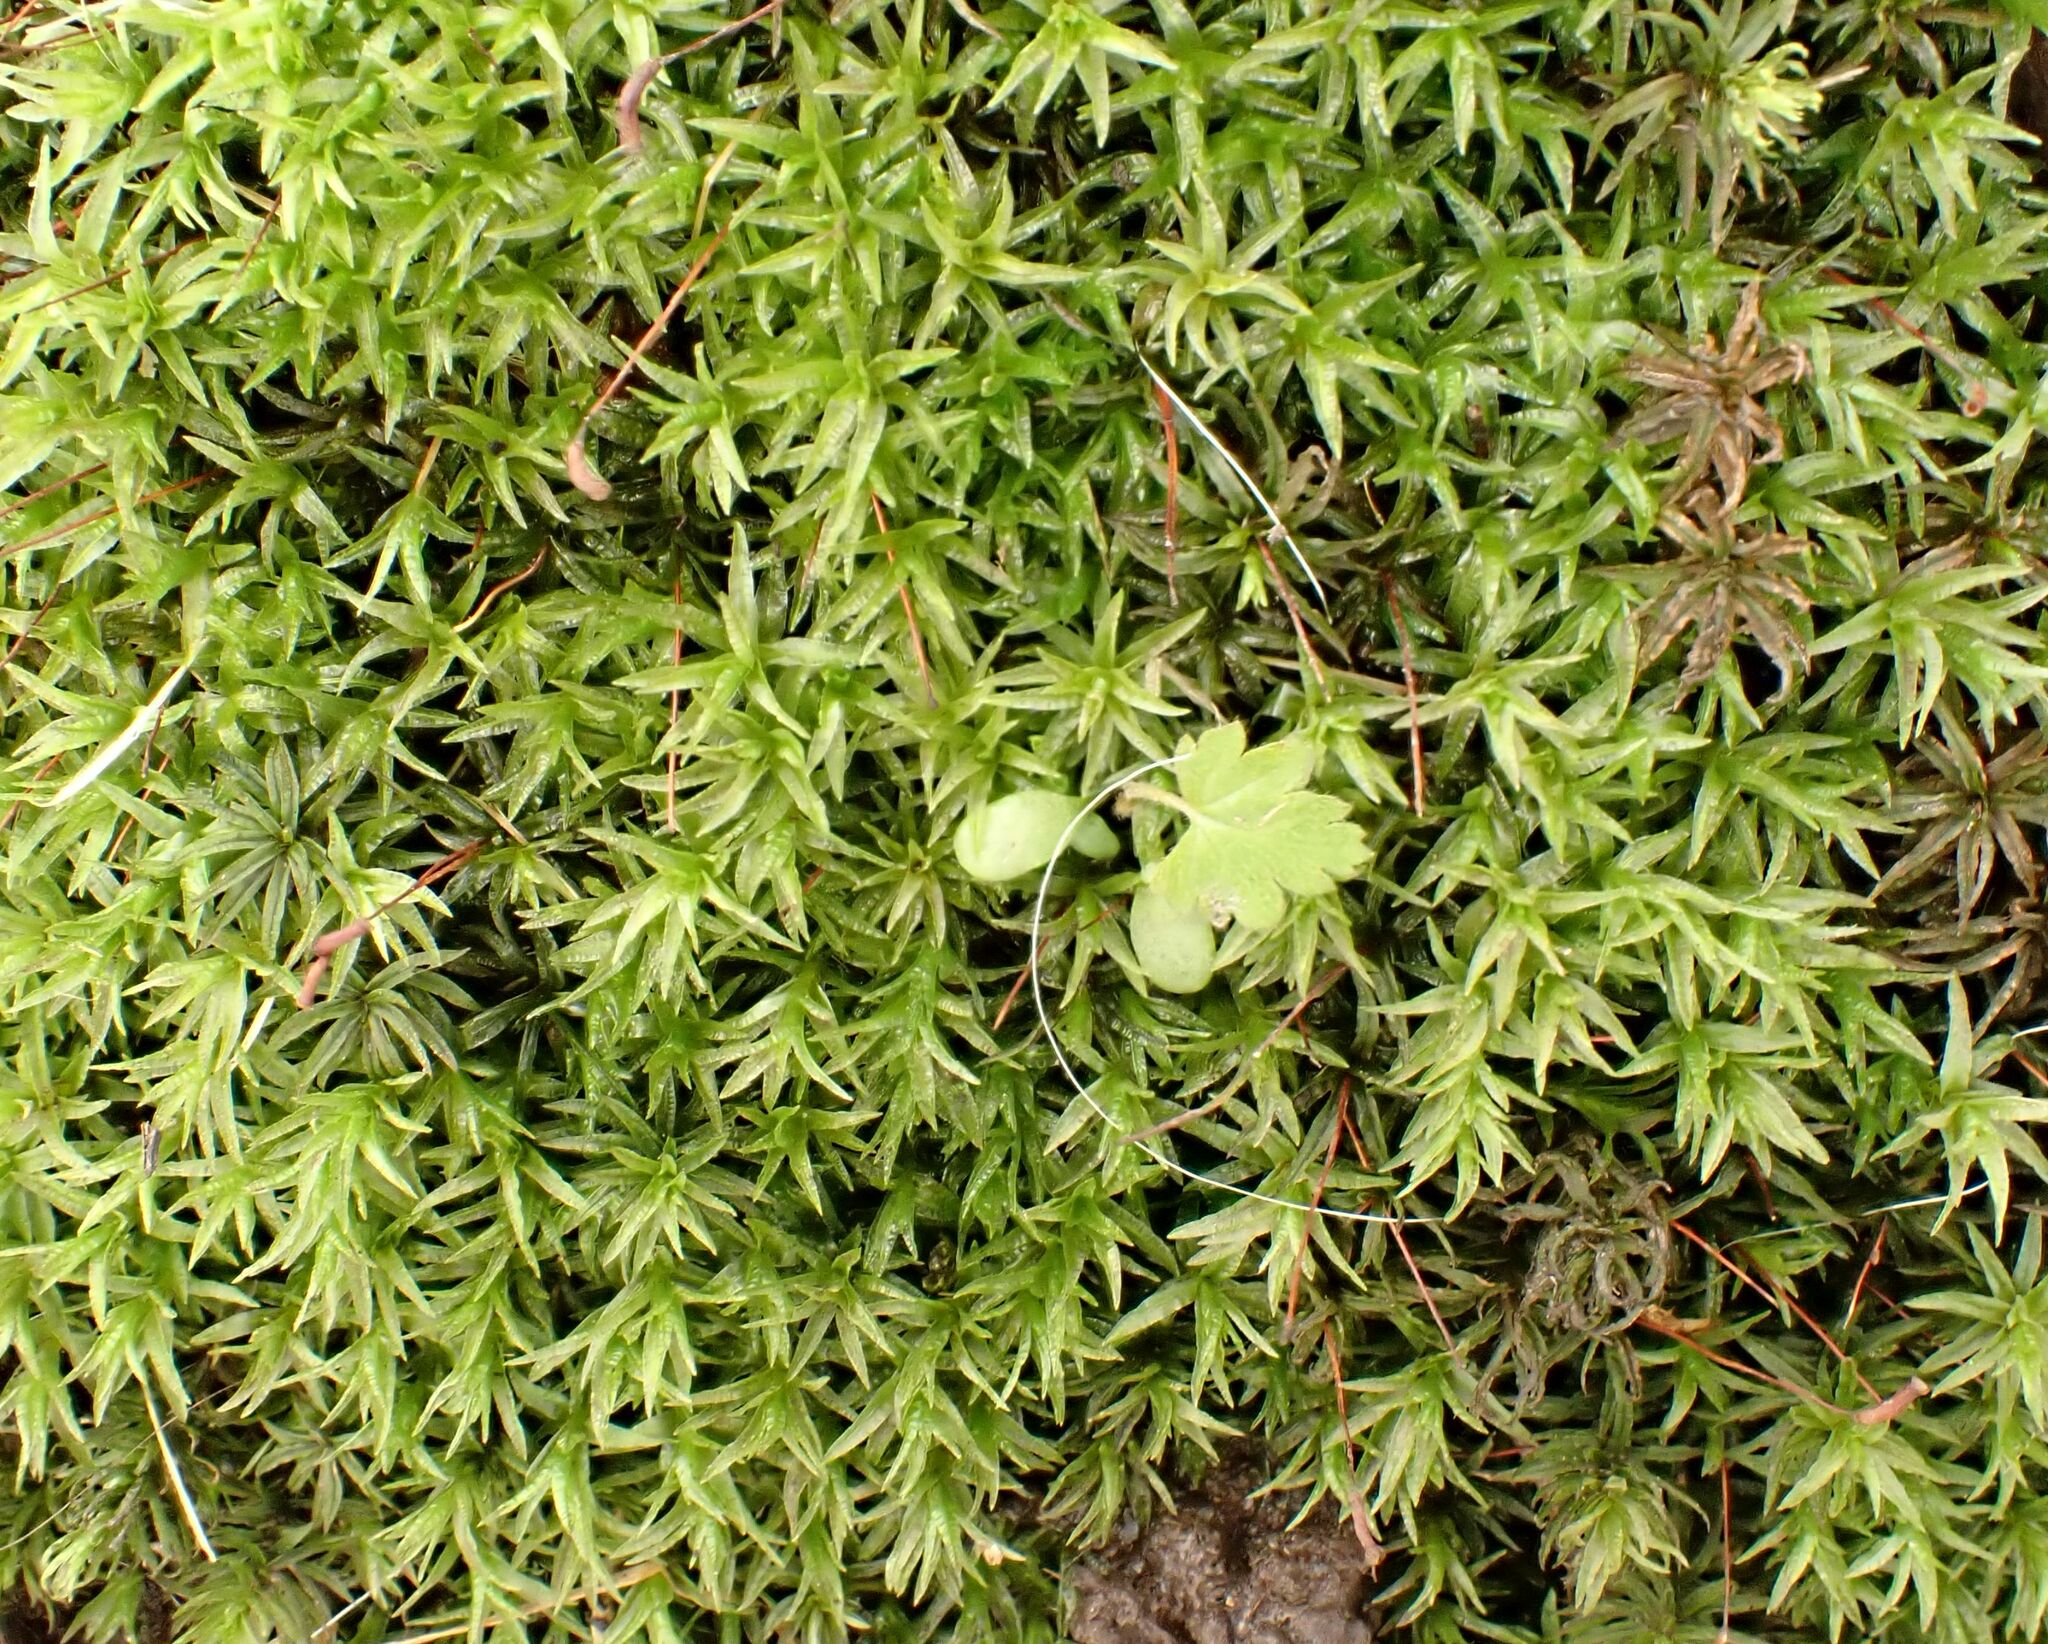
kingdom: Plantae
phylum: Bryophyta
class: Polytrichopsida
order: Polytrichales
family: Polytrichaceae
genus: Atrichum
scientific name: Atrichum undulatum
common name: Common smoothcap
